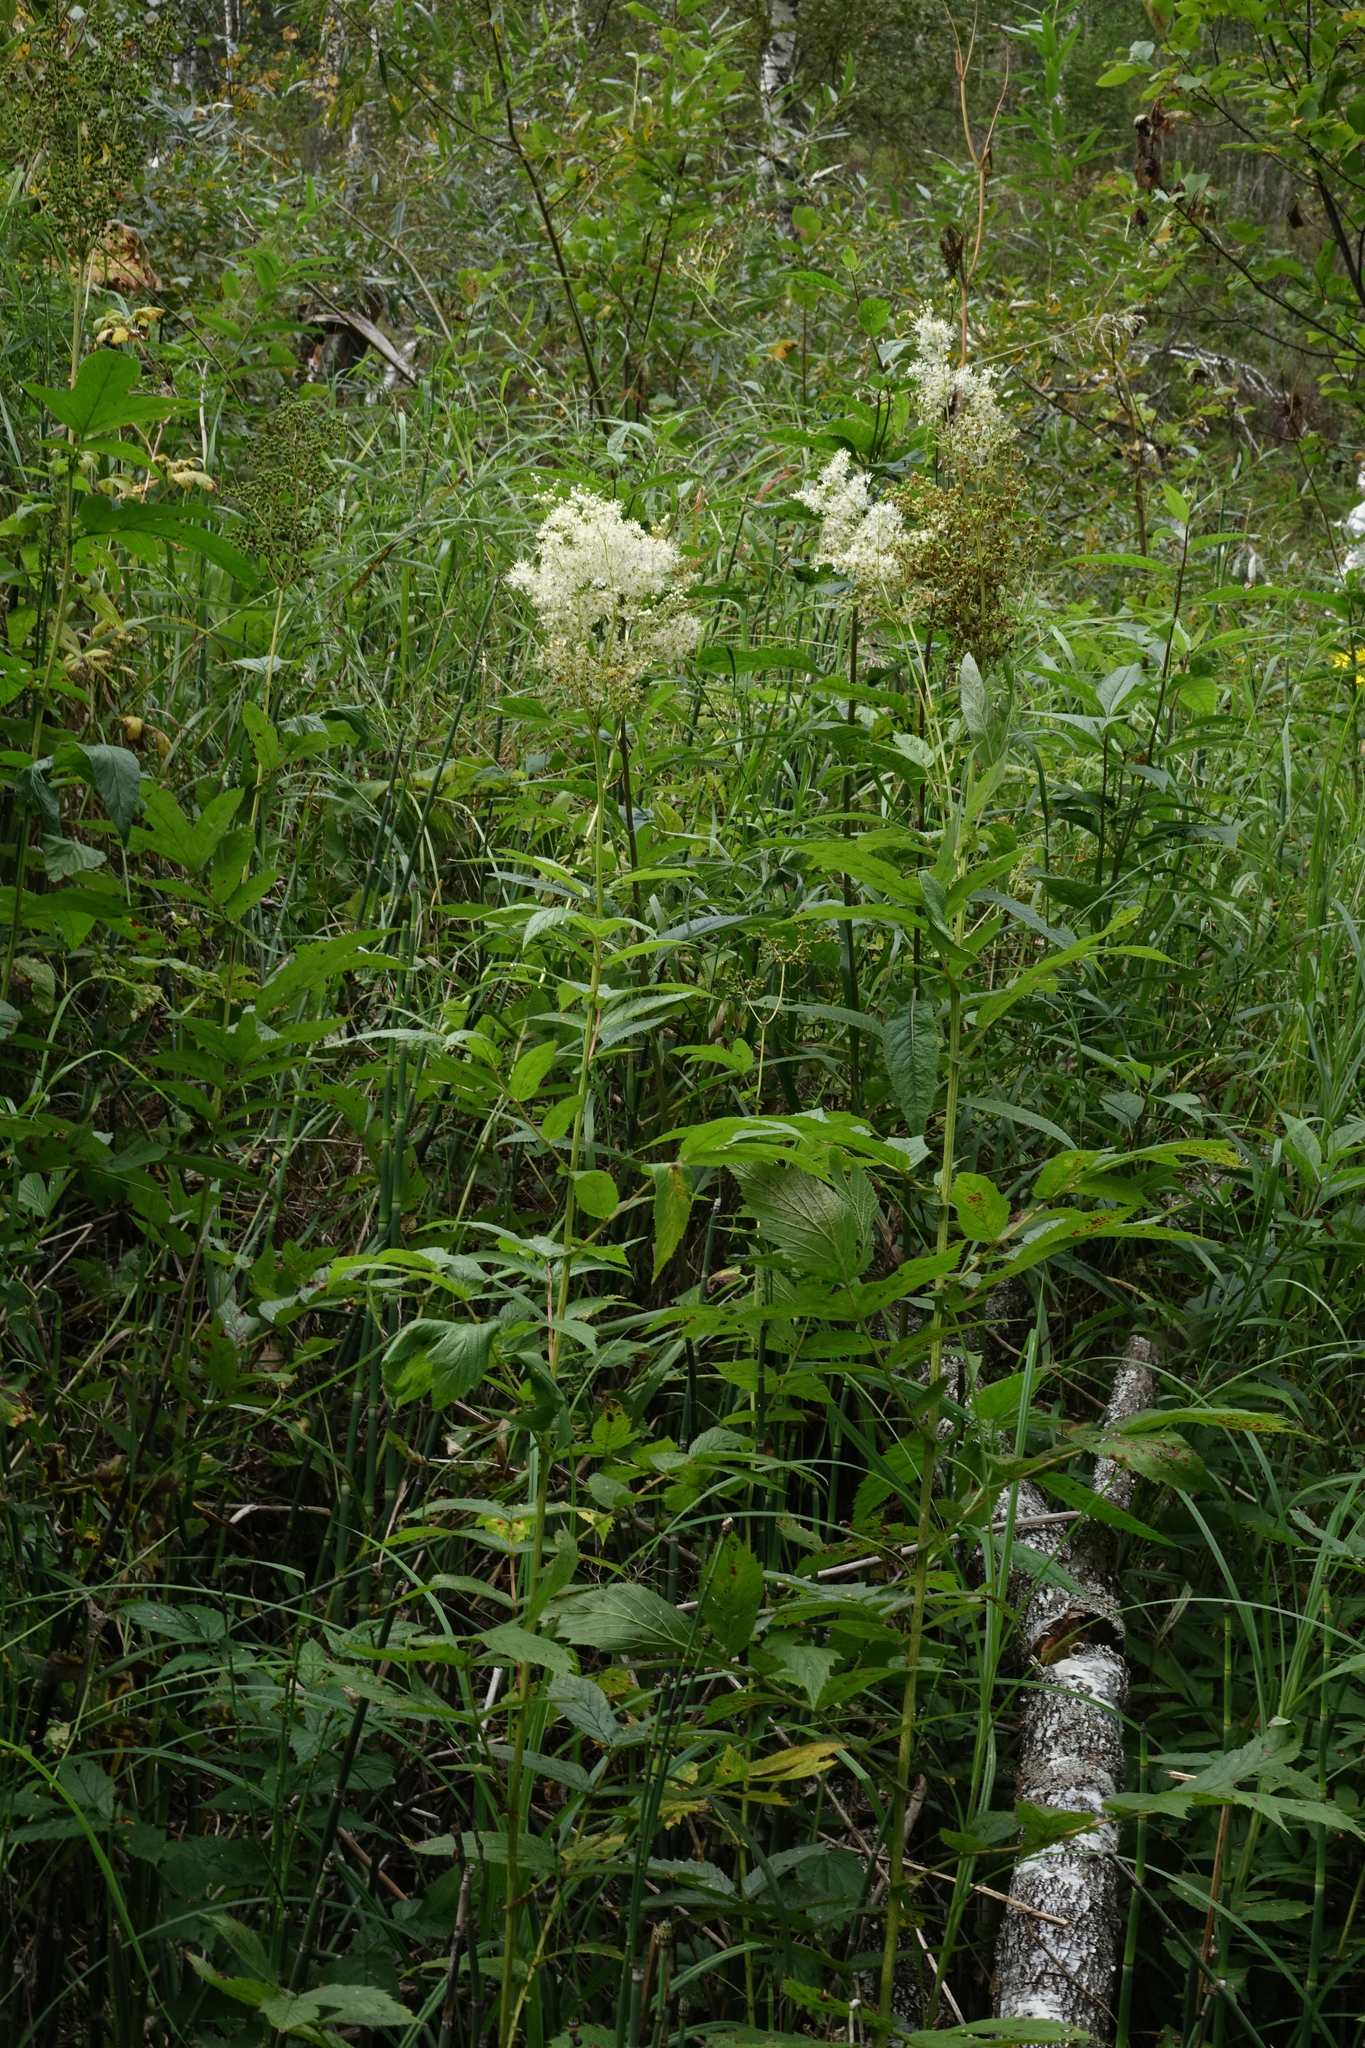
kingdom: Plantae
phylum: Tracheophyta
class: Magnoliopsida
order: Rosales
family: Rosaceae
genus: Filipendula
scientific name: Filipendula ulmaria
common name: Meadowsweet
